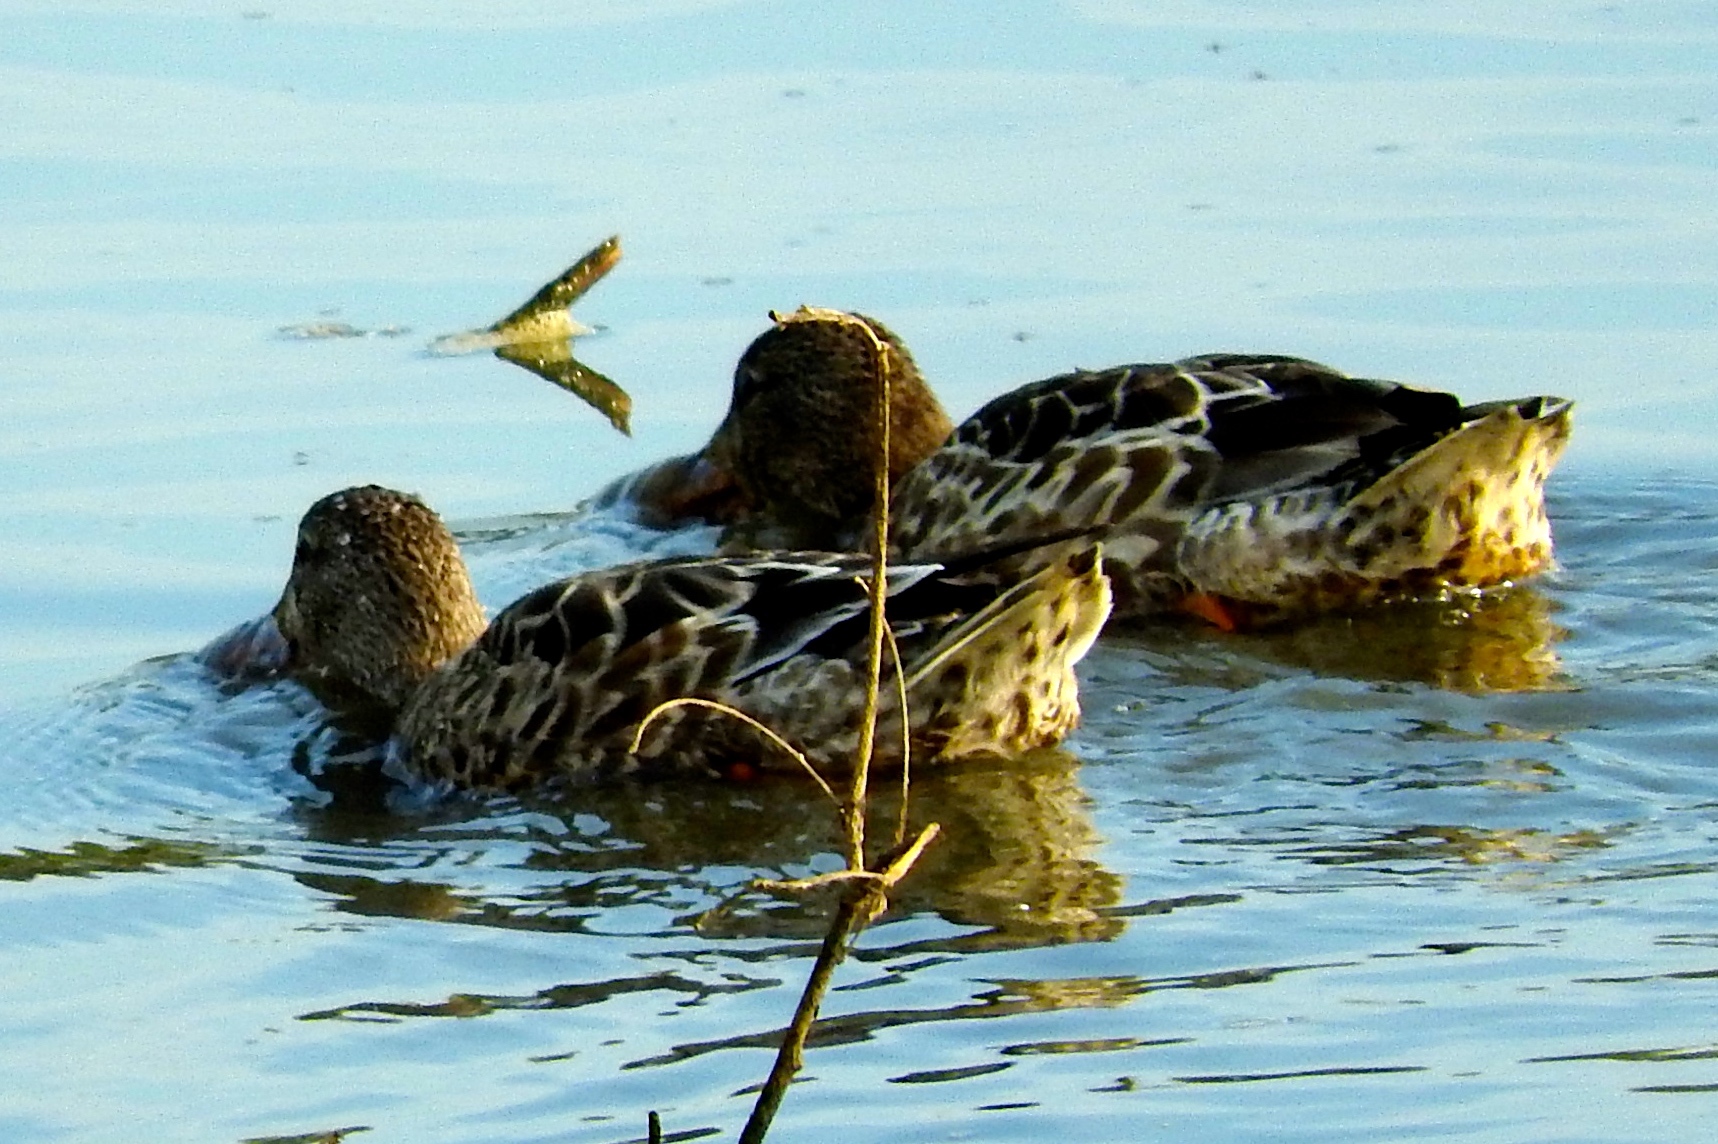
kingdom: Animalia
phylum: Chordata
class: Aves
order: Anseriformes
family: Anatidae
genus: Spatula
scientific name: Spatula clypeata
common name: Northern shoveler
